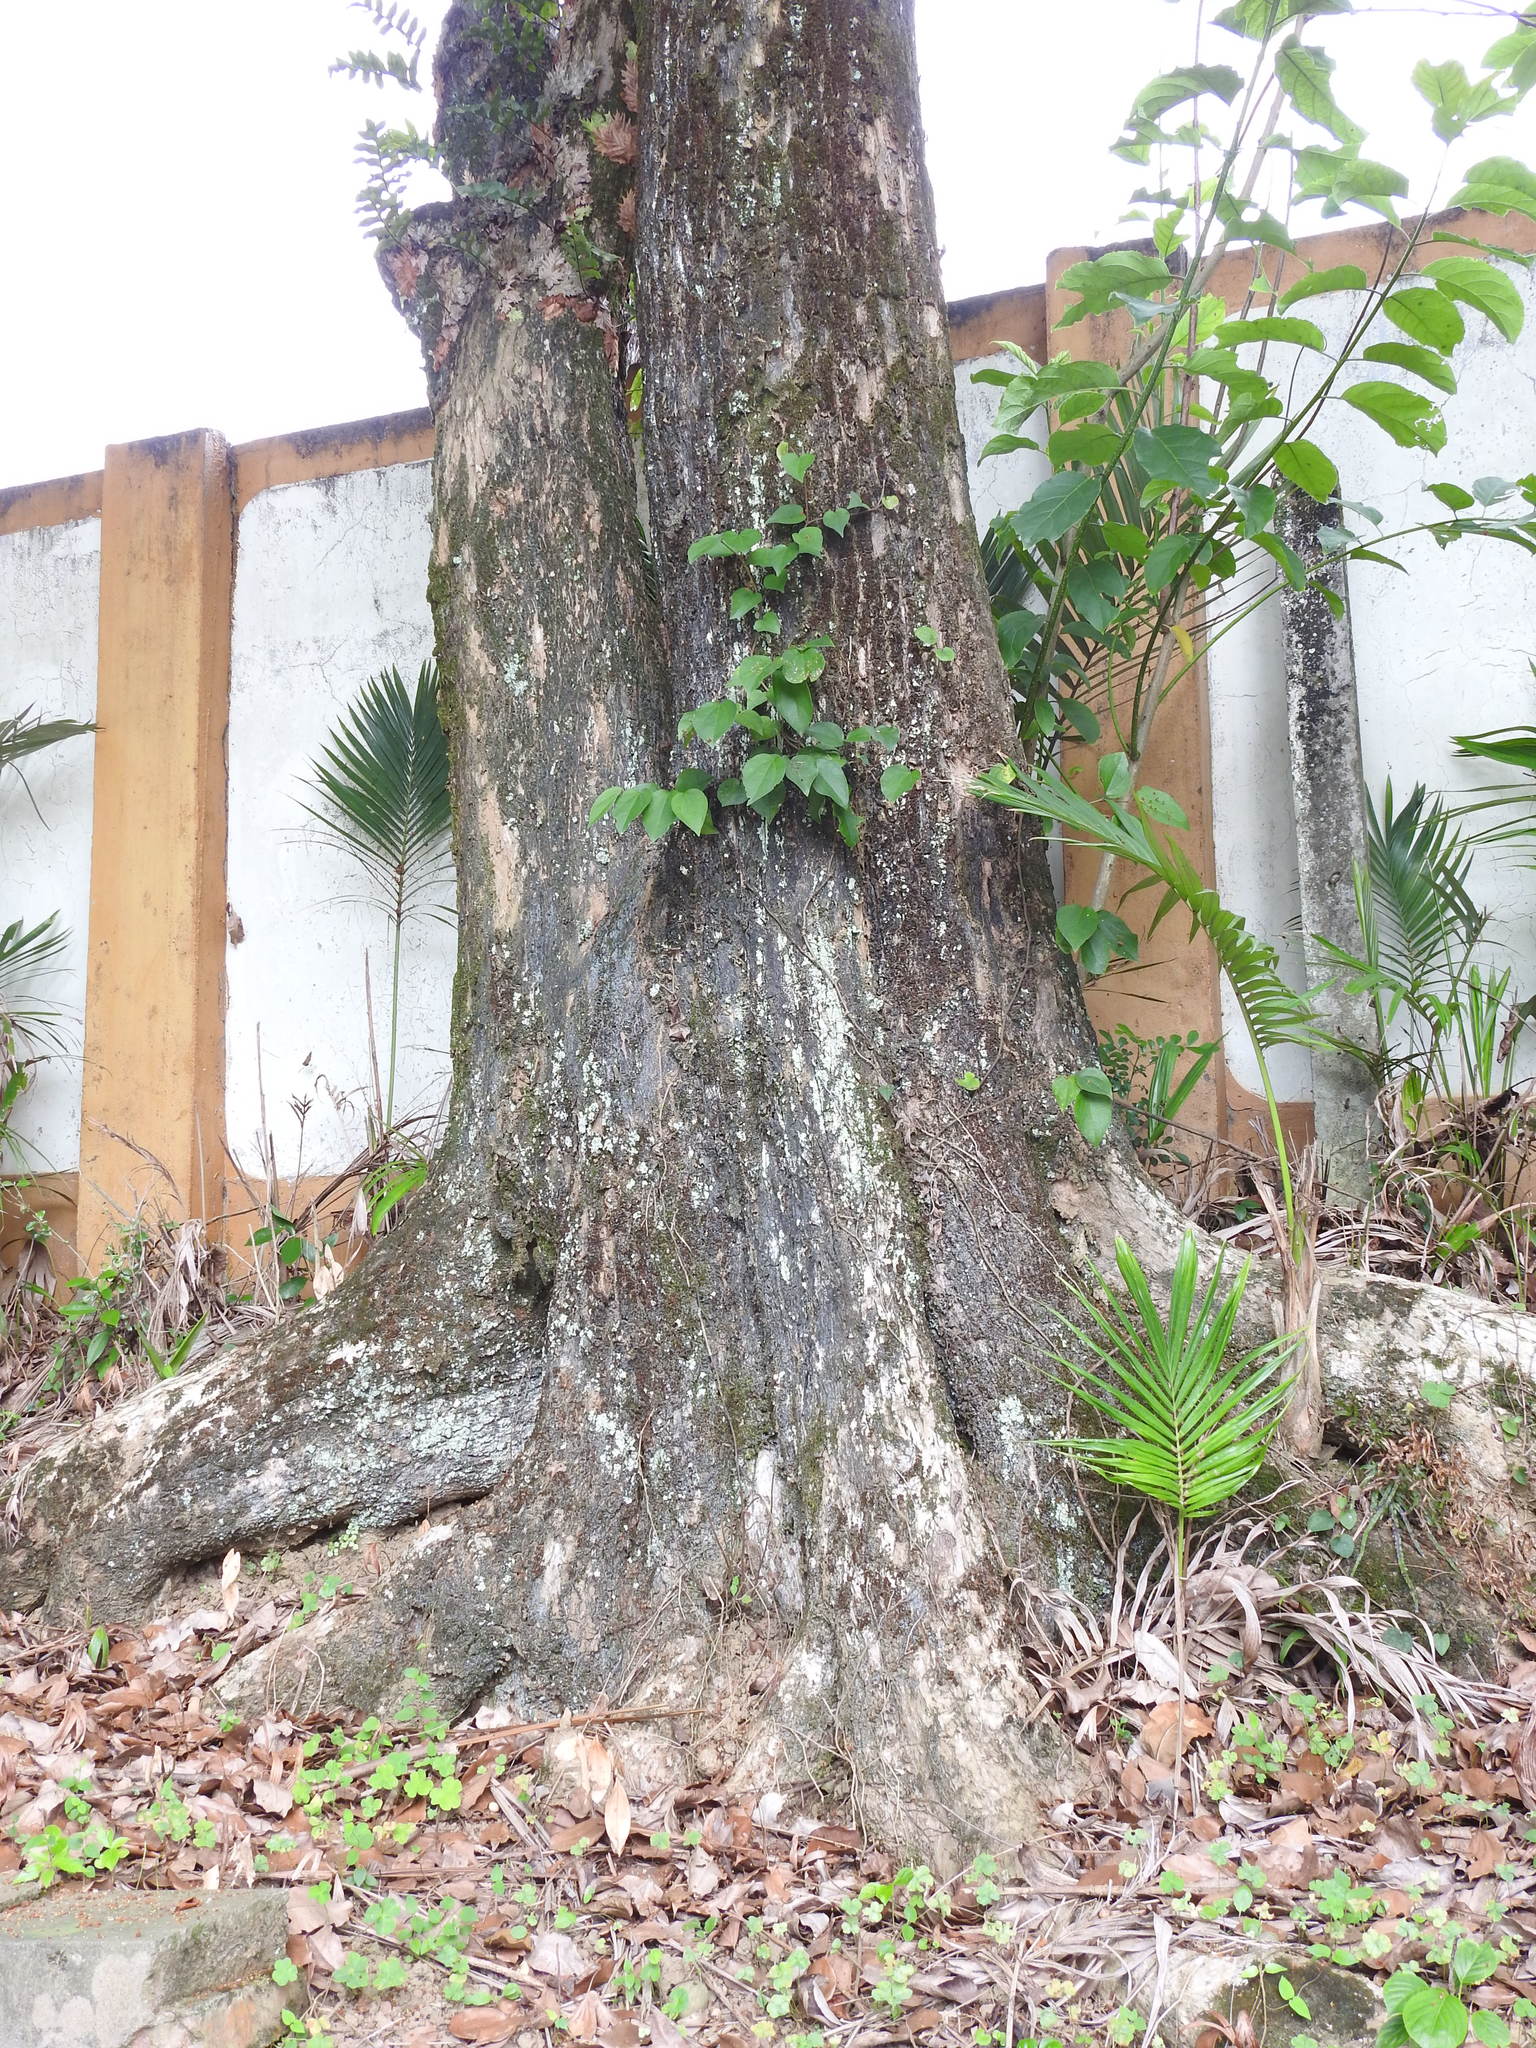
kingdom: Plantae
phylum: Tracheophyta
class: Magnoliopsida
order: Boraginales
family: Ehretiaceae
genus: Ehretia
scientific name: Ehretia acuminata
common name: Kodo wood
